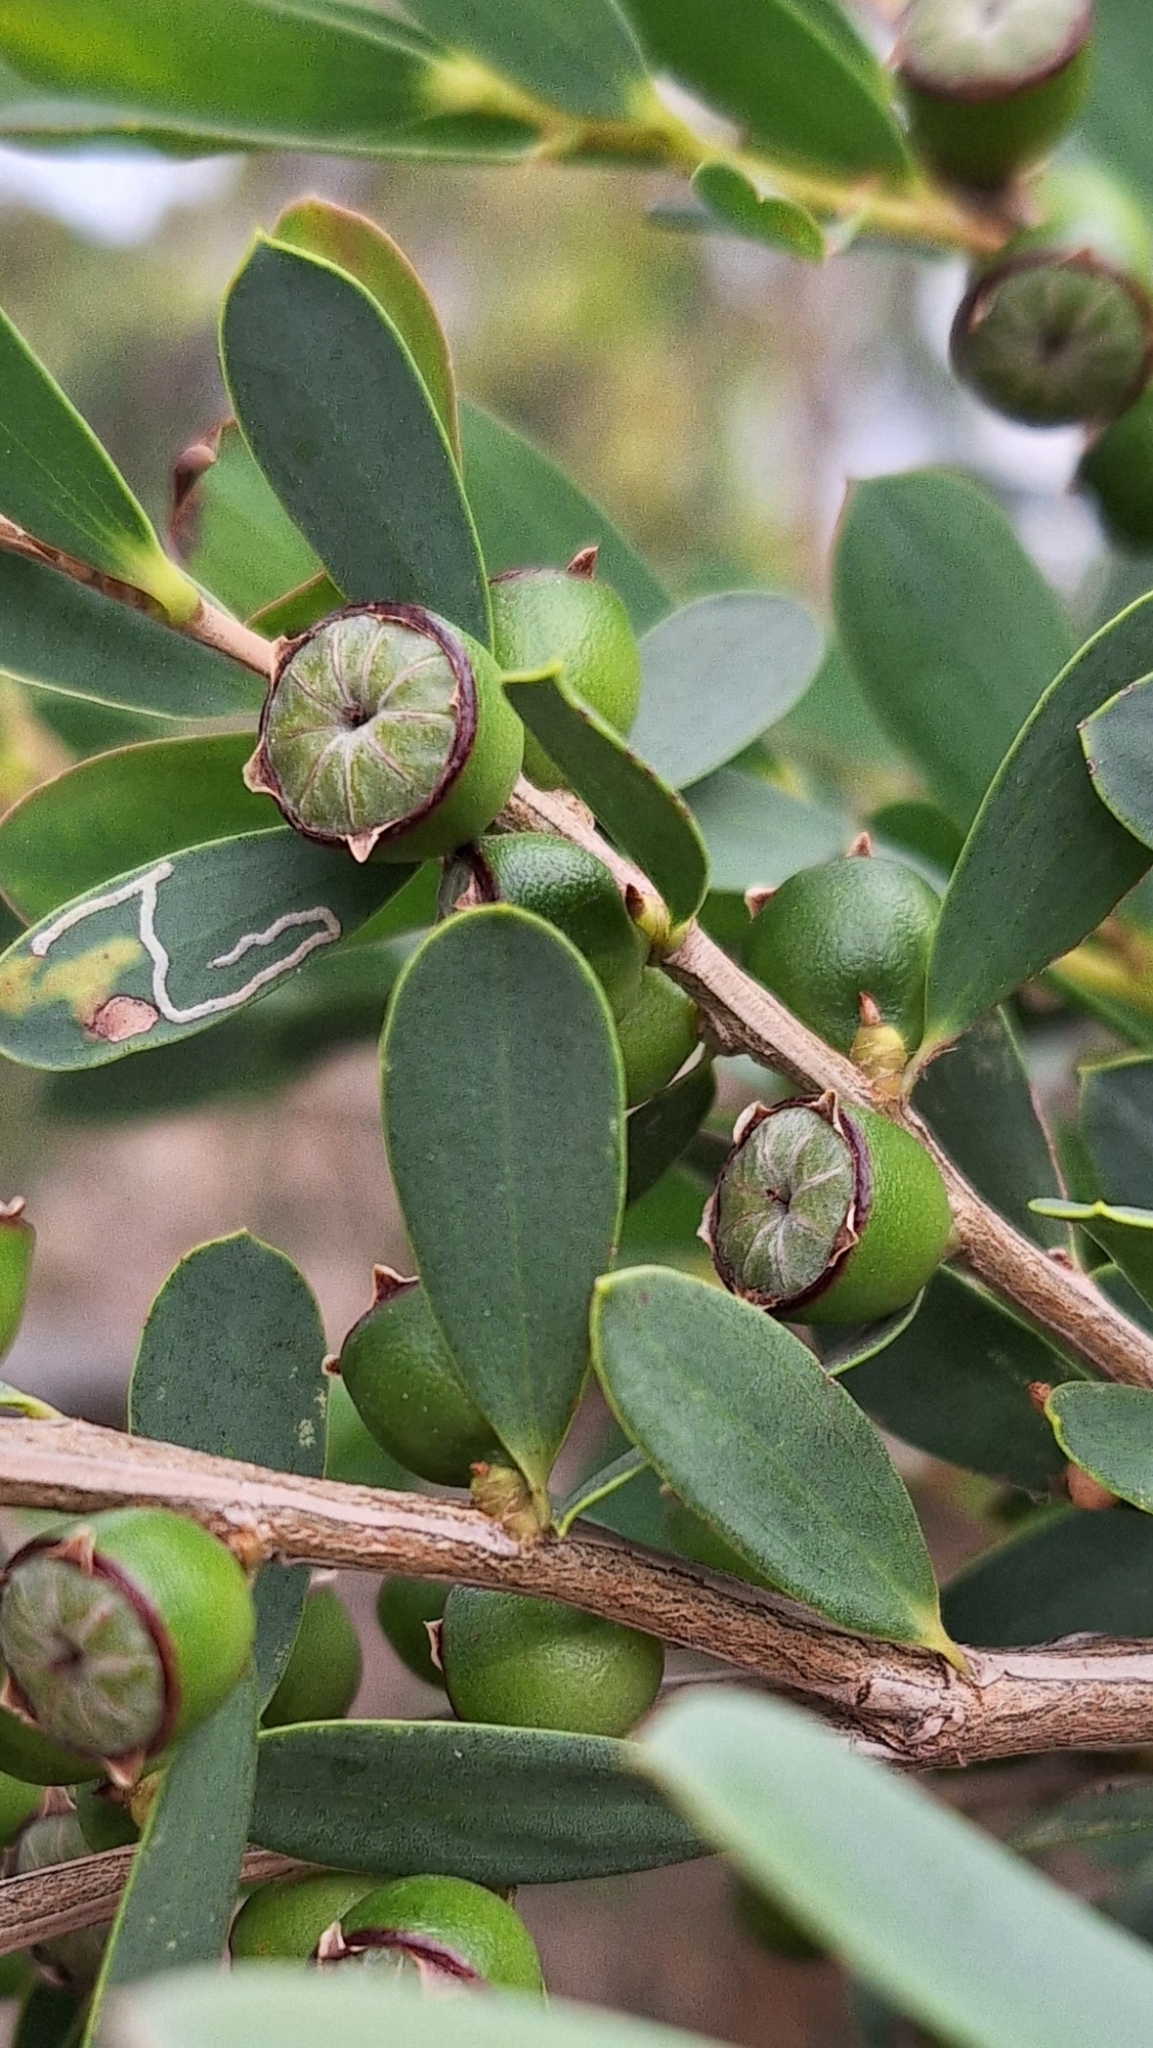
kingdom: Plantae
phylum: Tracheophyta
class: Magnoliopsida
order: Myrtales
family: Myrtaceae
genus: Leptospermum
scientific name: Leptospermum laevigatum
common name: Australian teatree
